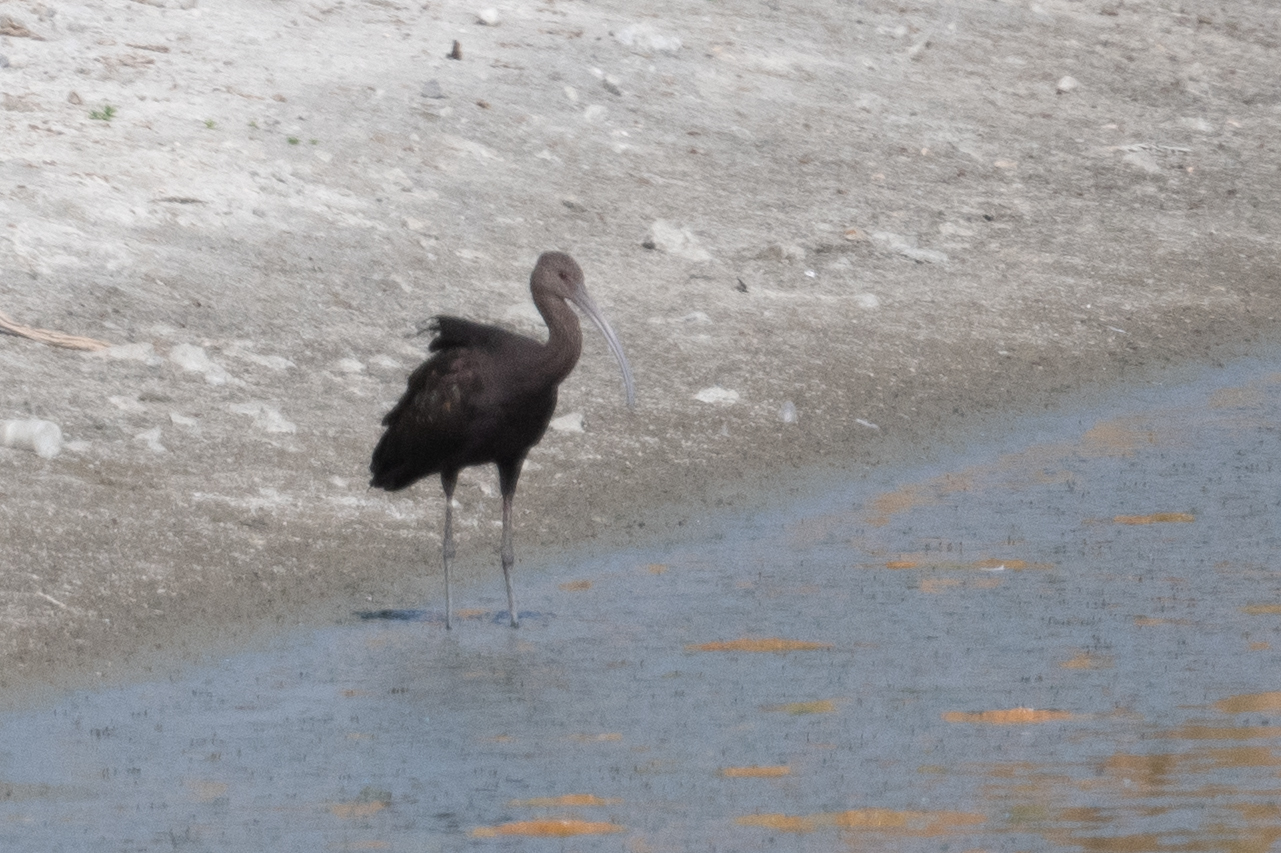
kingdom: Animalia
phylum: Chordata
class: Aves
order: Pelecaniformes
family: Threskiornithidae
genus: Plegadis
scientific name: Plegadis chihi
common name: White-faced ibis
